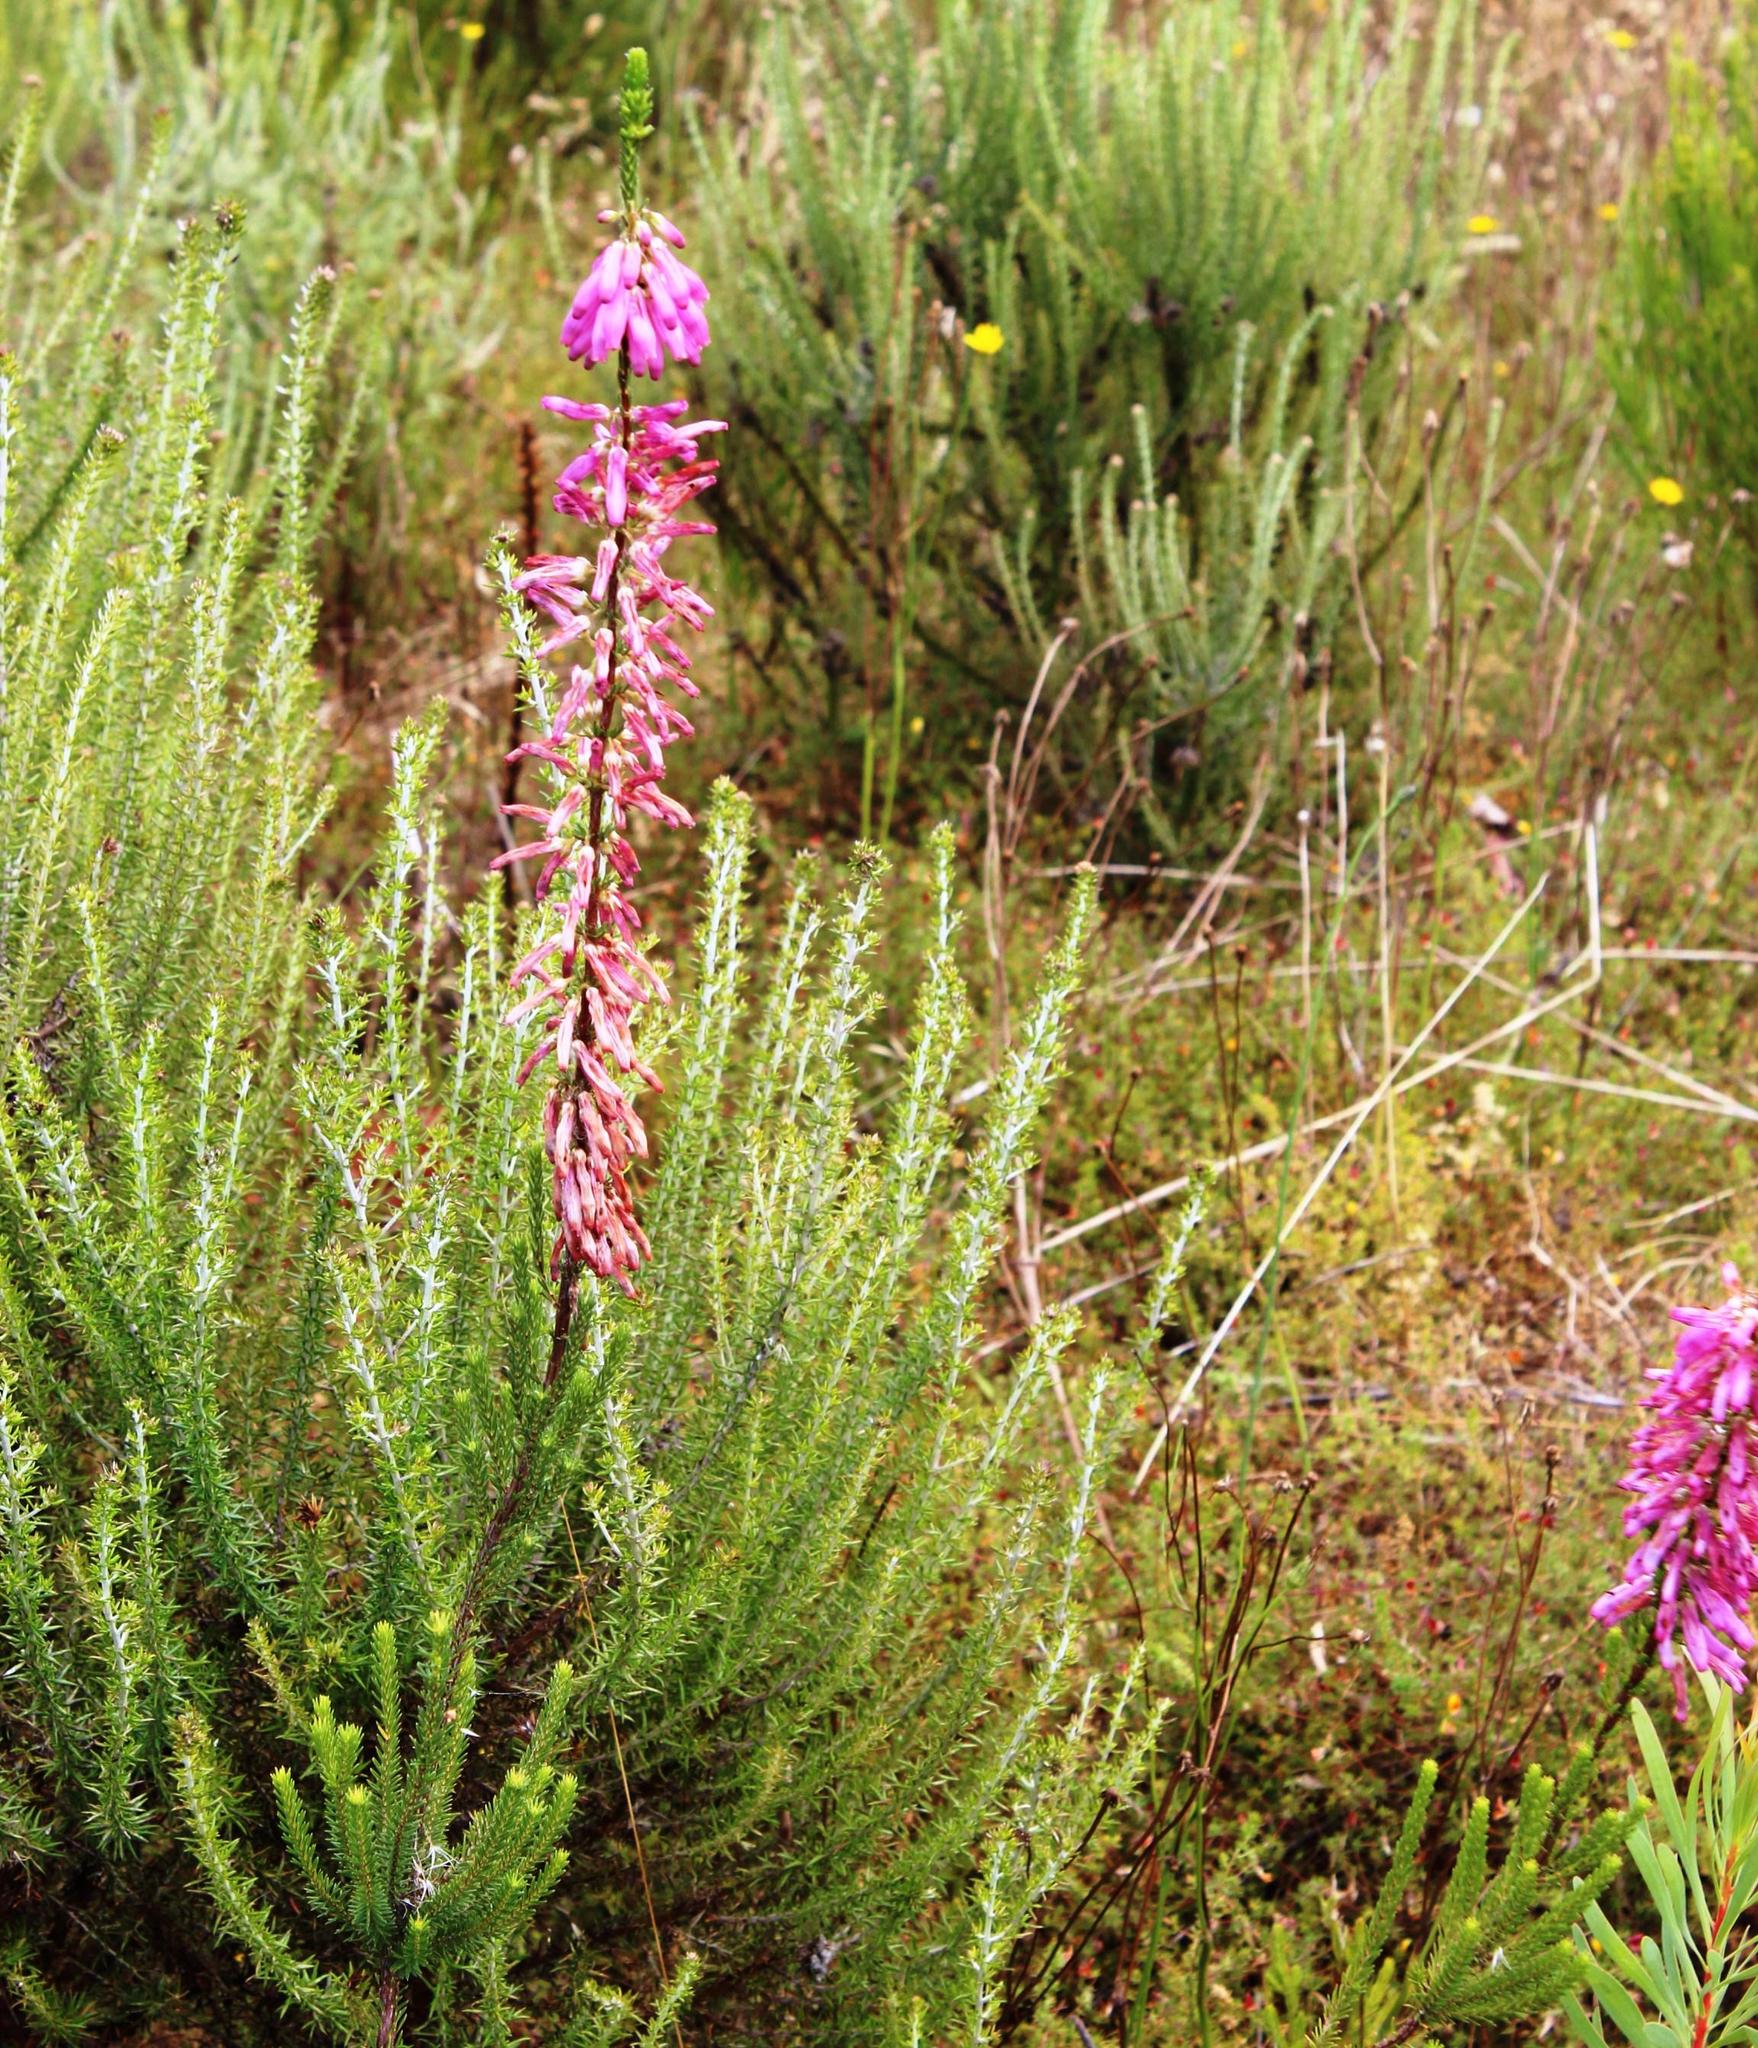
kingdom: Plantae
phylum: Tracheophyta
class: Magnoliopsida
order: Ericales
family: Ericaceae
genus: Erica
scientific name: Erica mammosa
